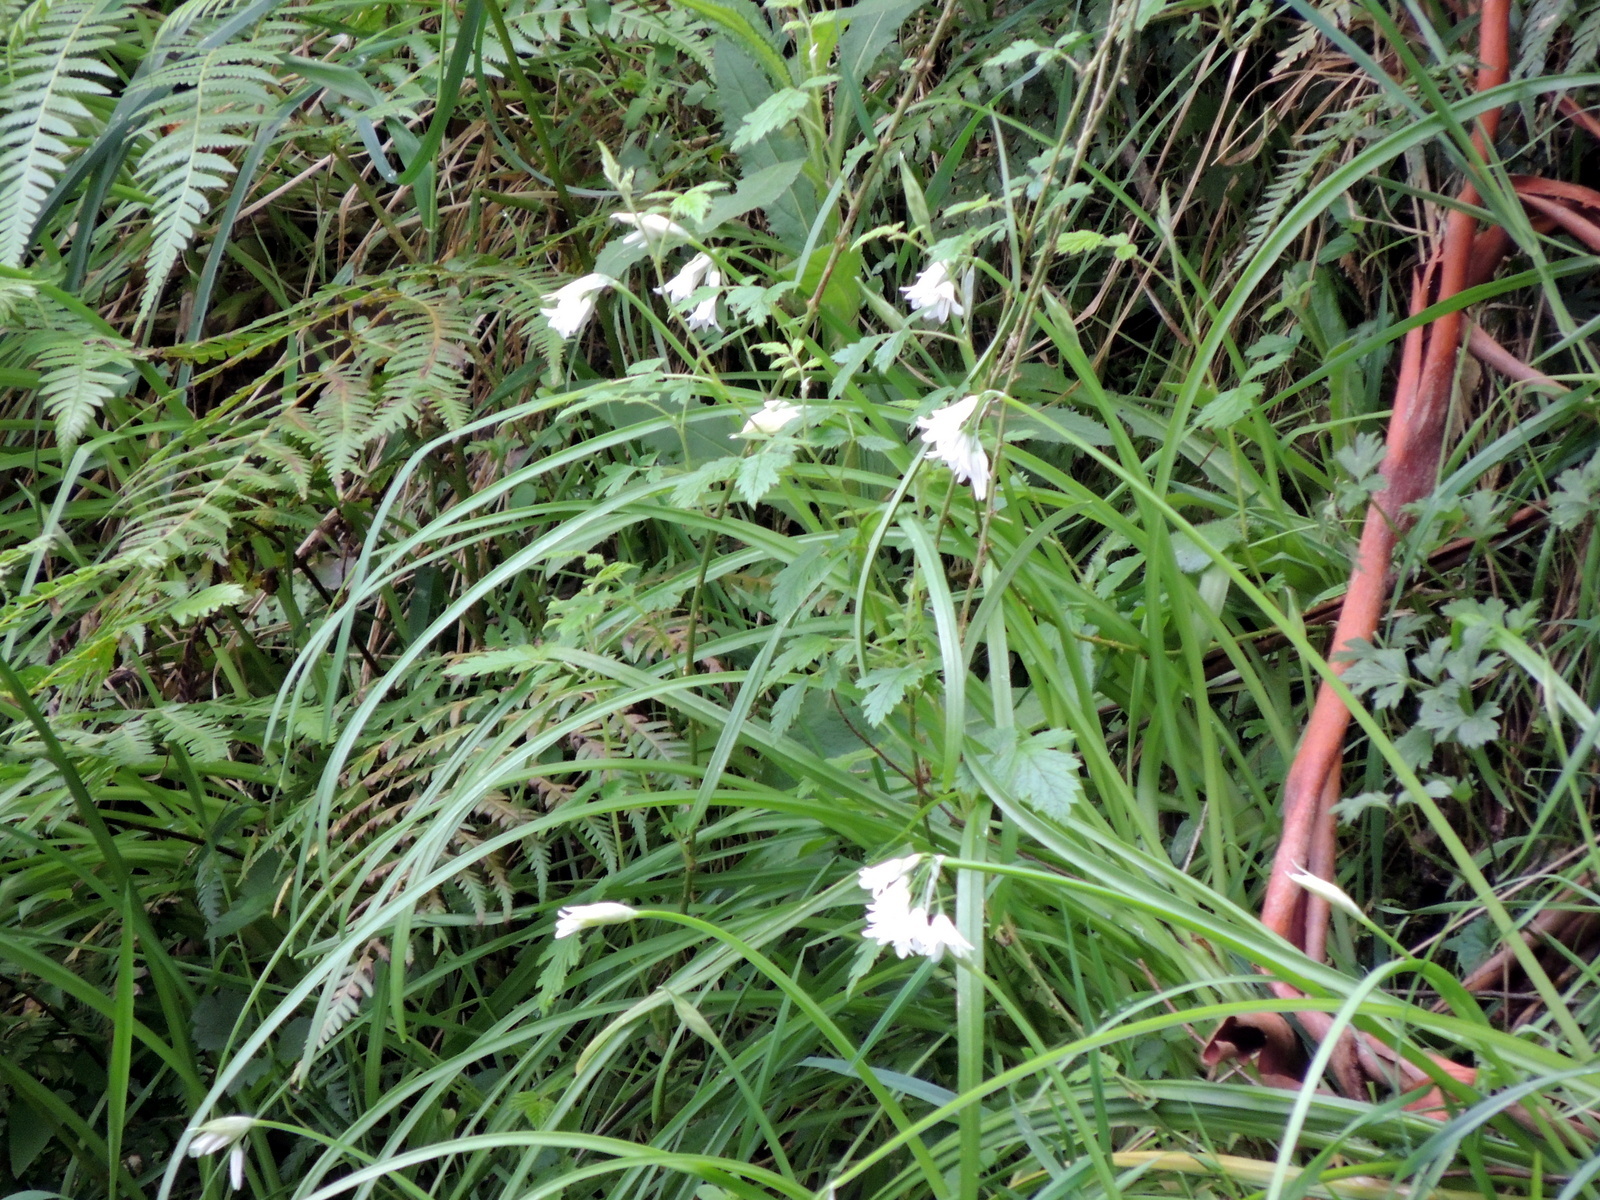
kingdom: Plantae
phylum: Tracheophyta
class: Liliopsida
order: Asparagales
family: Amaryllidaceae
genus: Allium
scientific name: Allium triquetrum
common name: Three-cornered garlic
